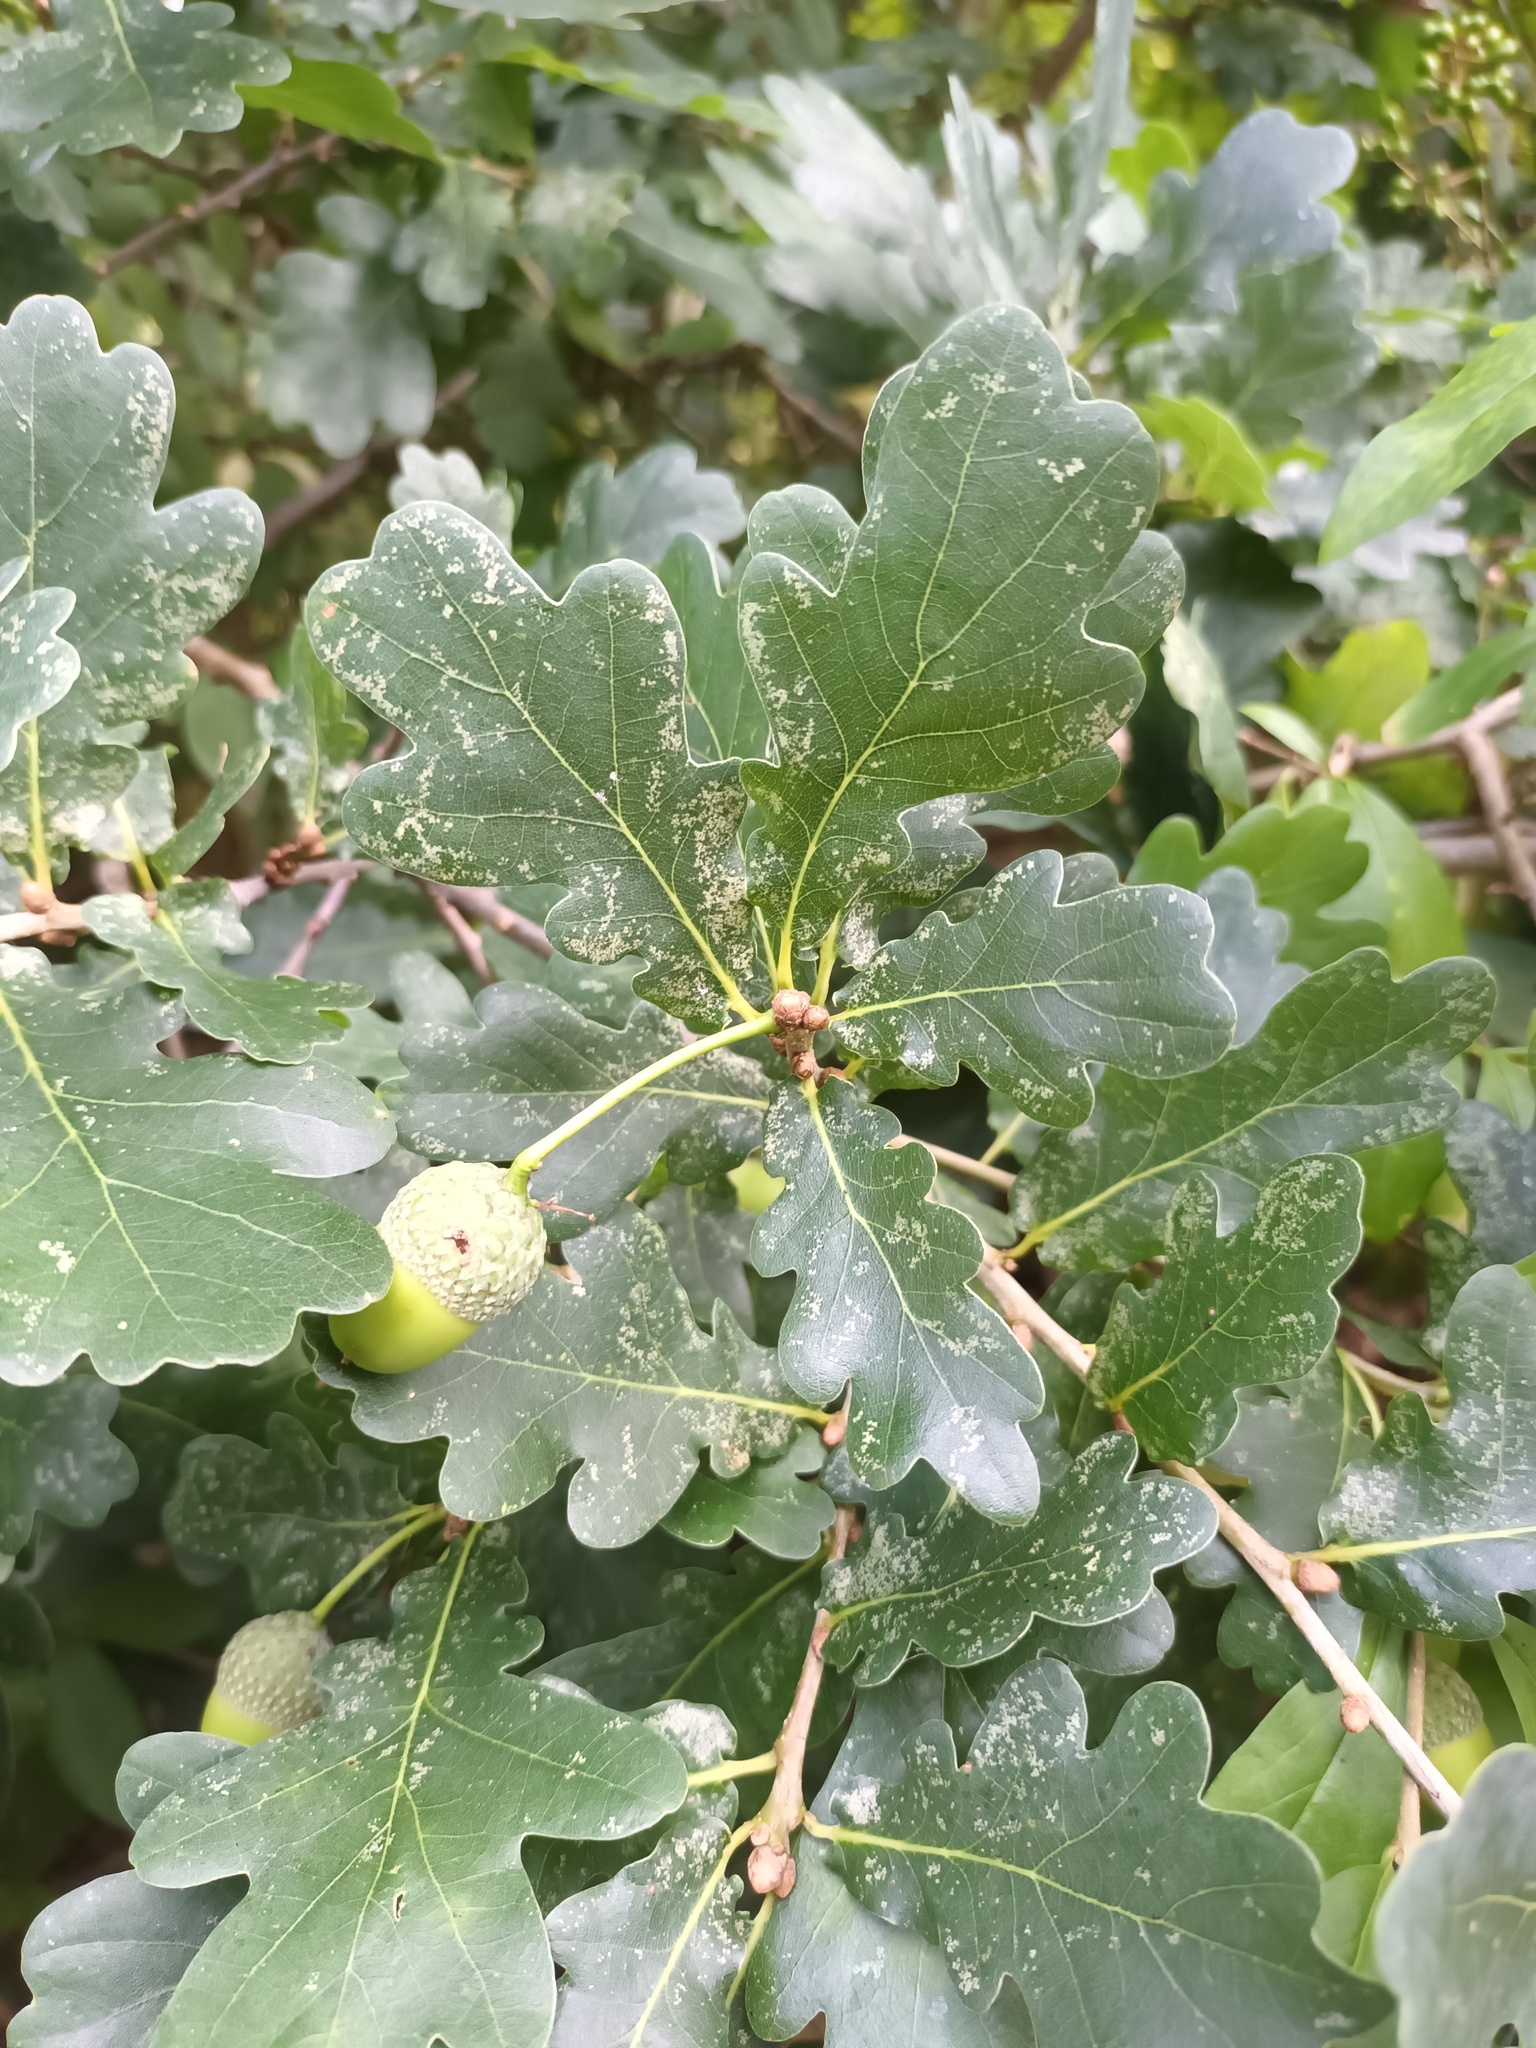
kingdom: Plantae
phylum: Tracheophyta
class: Magnoliopsida
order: Fagales
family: Fagaceae
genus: Quercus
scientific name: Quercus robur
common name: Pedunculate oak
